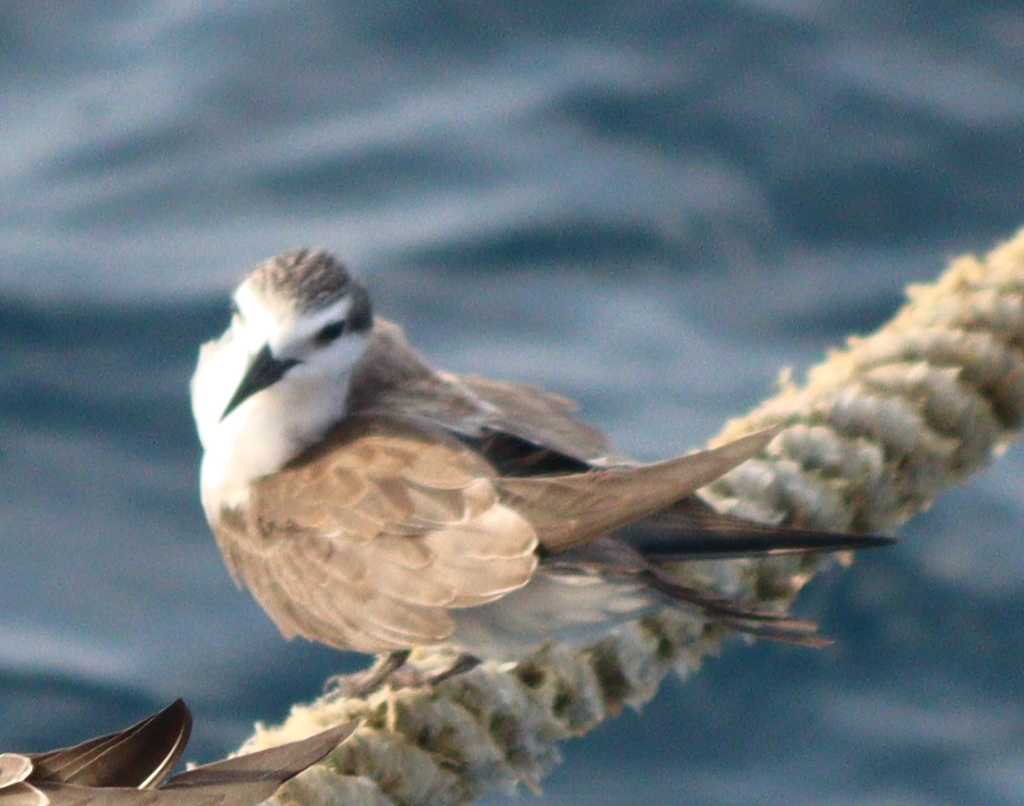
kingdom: Animalia
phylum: Chordata
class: Aves
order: Charadriiformes
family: Laridae
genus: Onychoprion
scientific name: Onychoprion anaethetus
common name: Bridled tern
